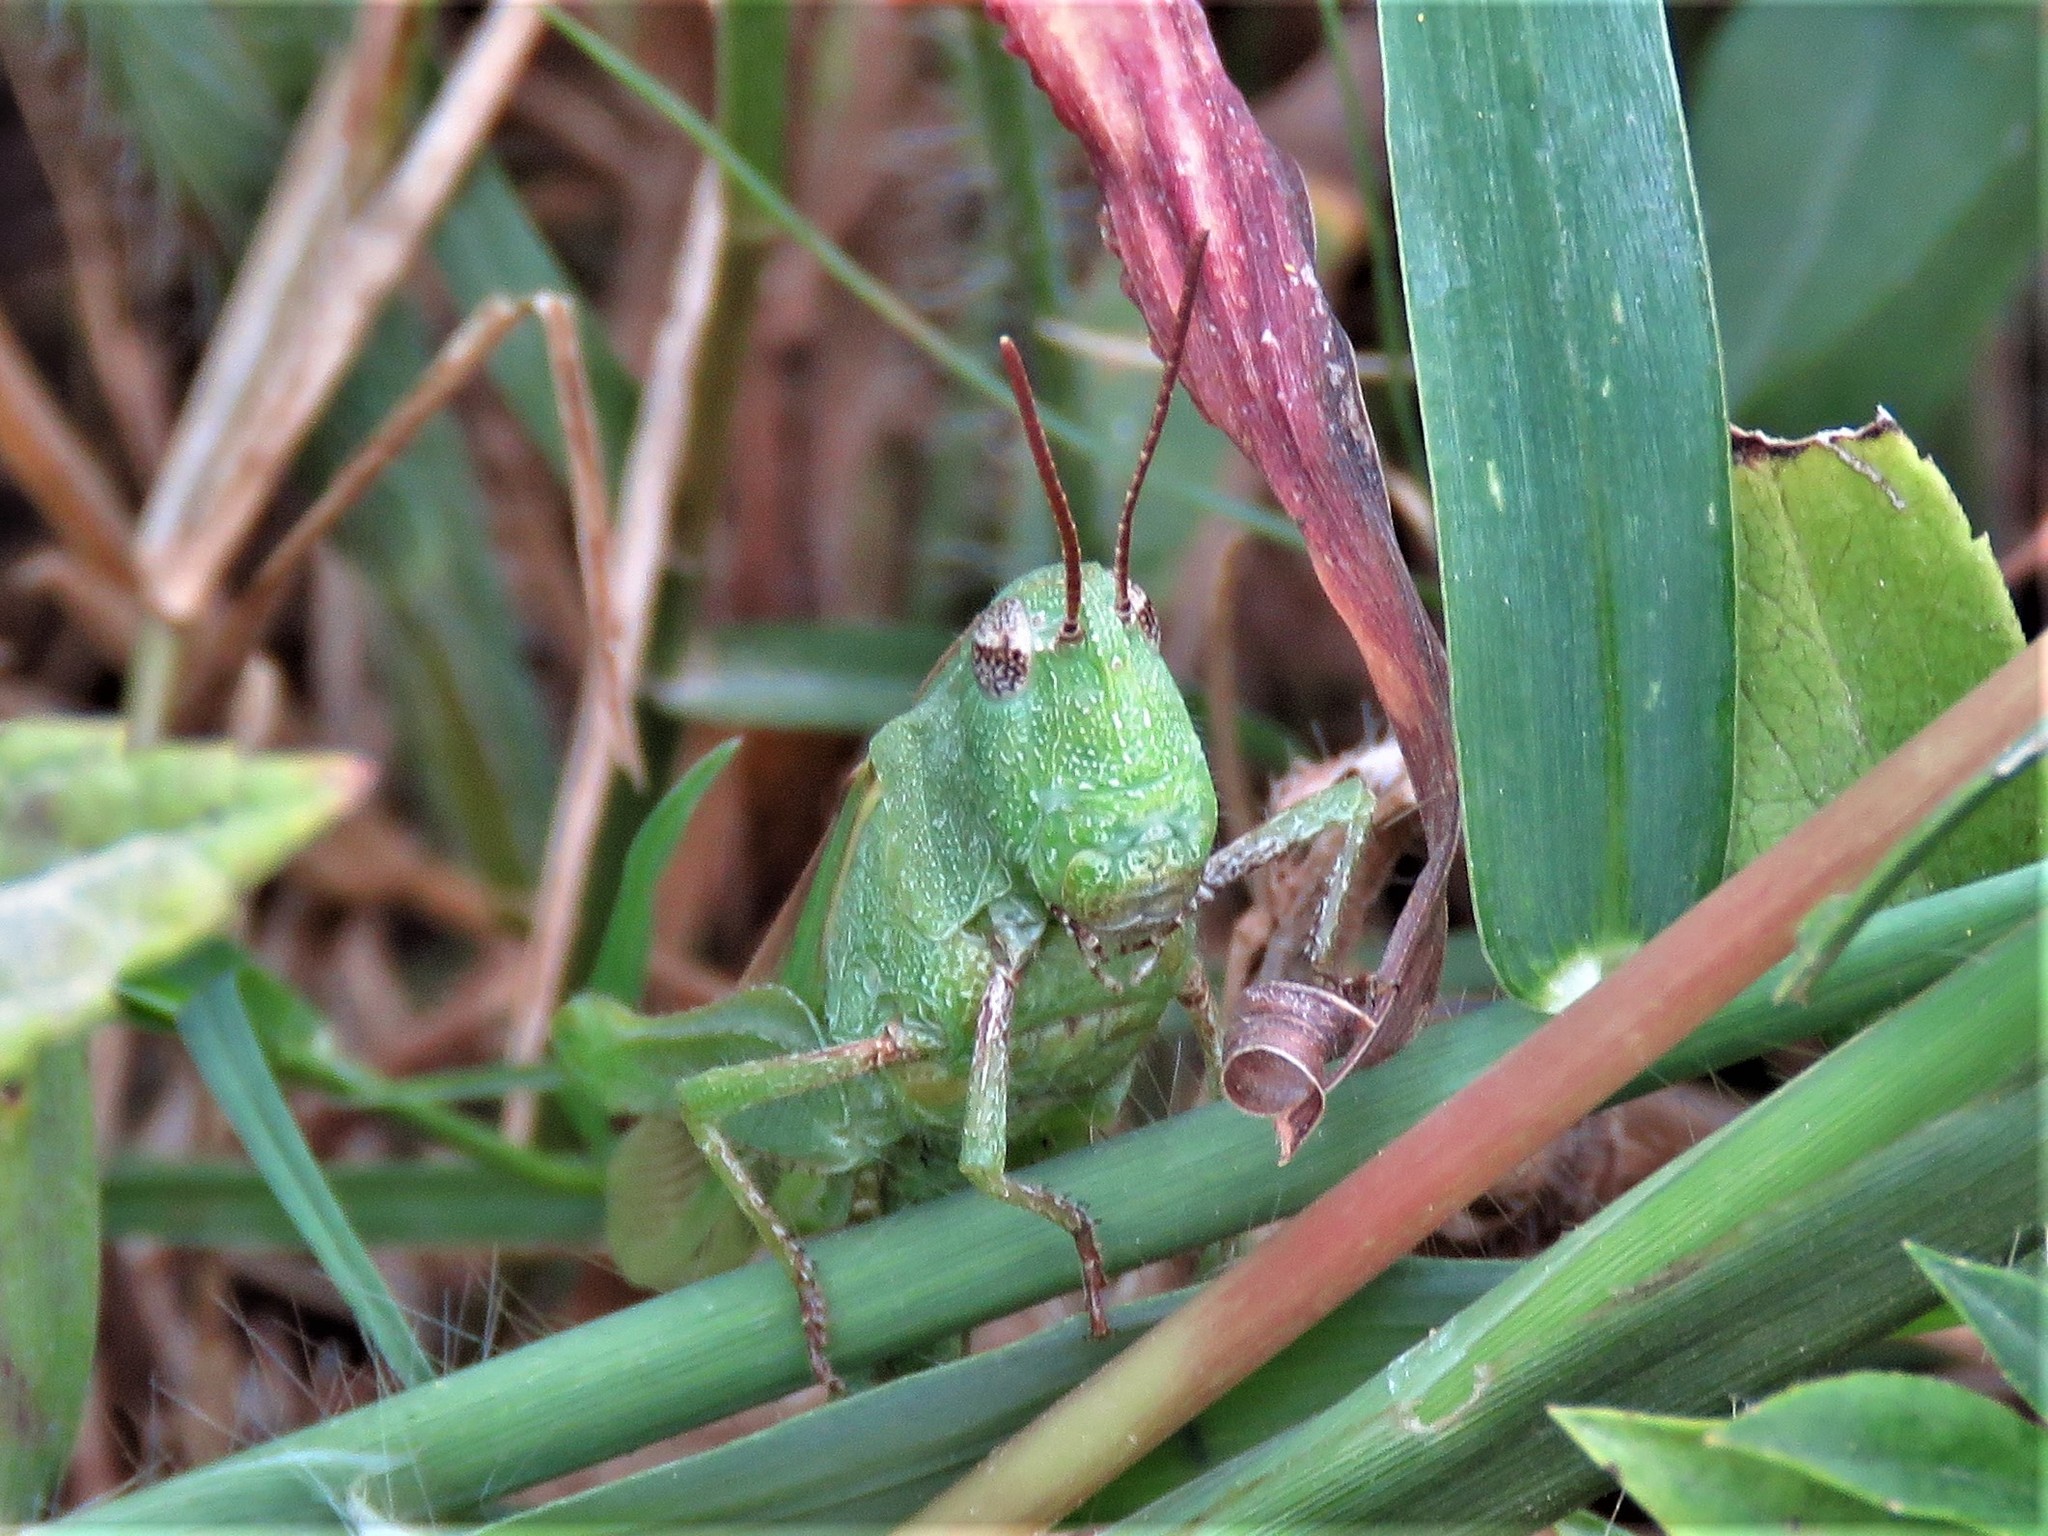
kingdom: Animalia
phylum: Arthropoda
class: Insecta
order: Orthoptera
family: Acrididae
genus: Chortophaga
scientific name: Chortophaga viridifasciata
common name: Green-striped grasshopper
